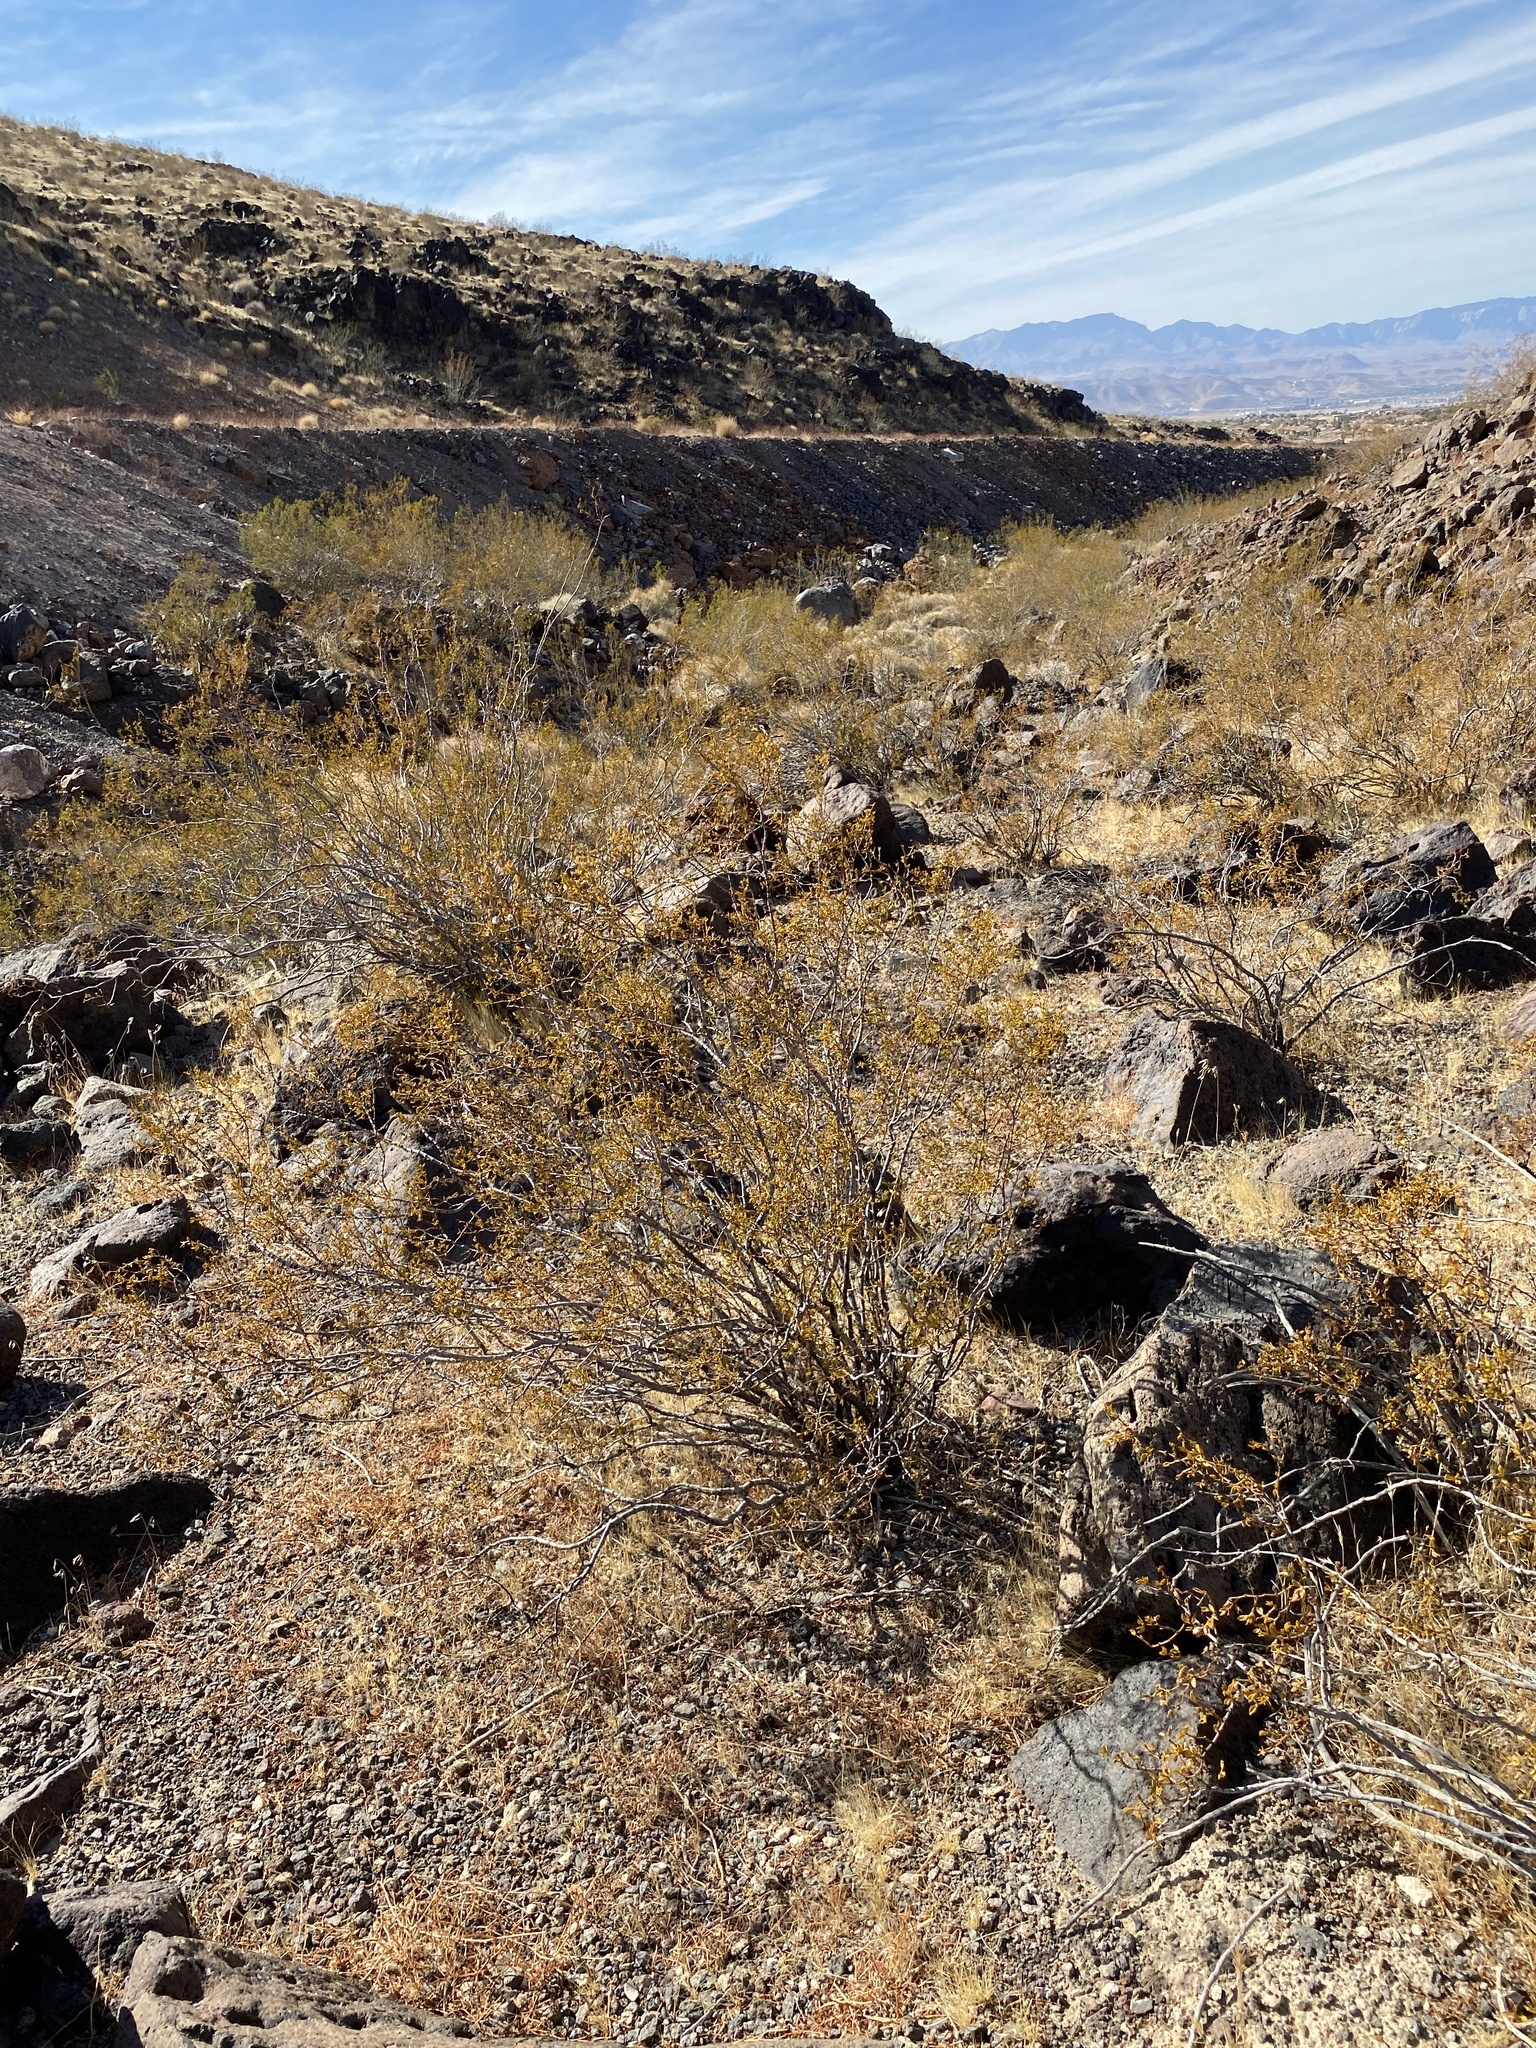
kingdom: Plantae
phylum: Tracheophyta
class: Magnoliopsida
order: Zygophyllales
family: Zygophyllaceae
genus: Larrea
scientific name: Larrea tridentata
